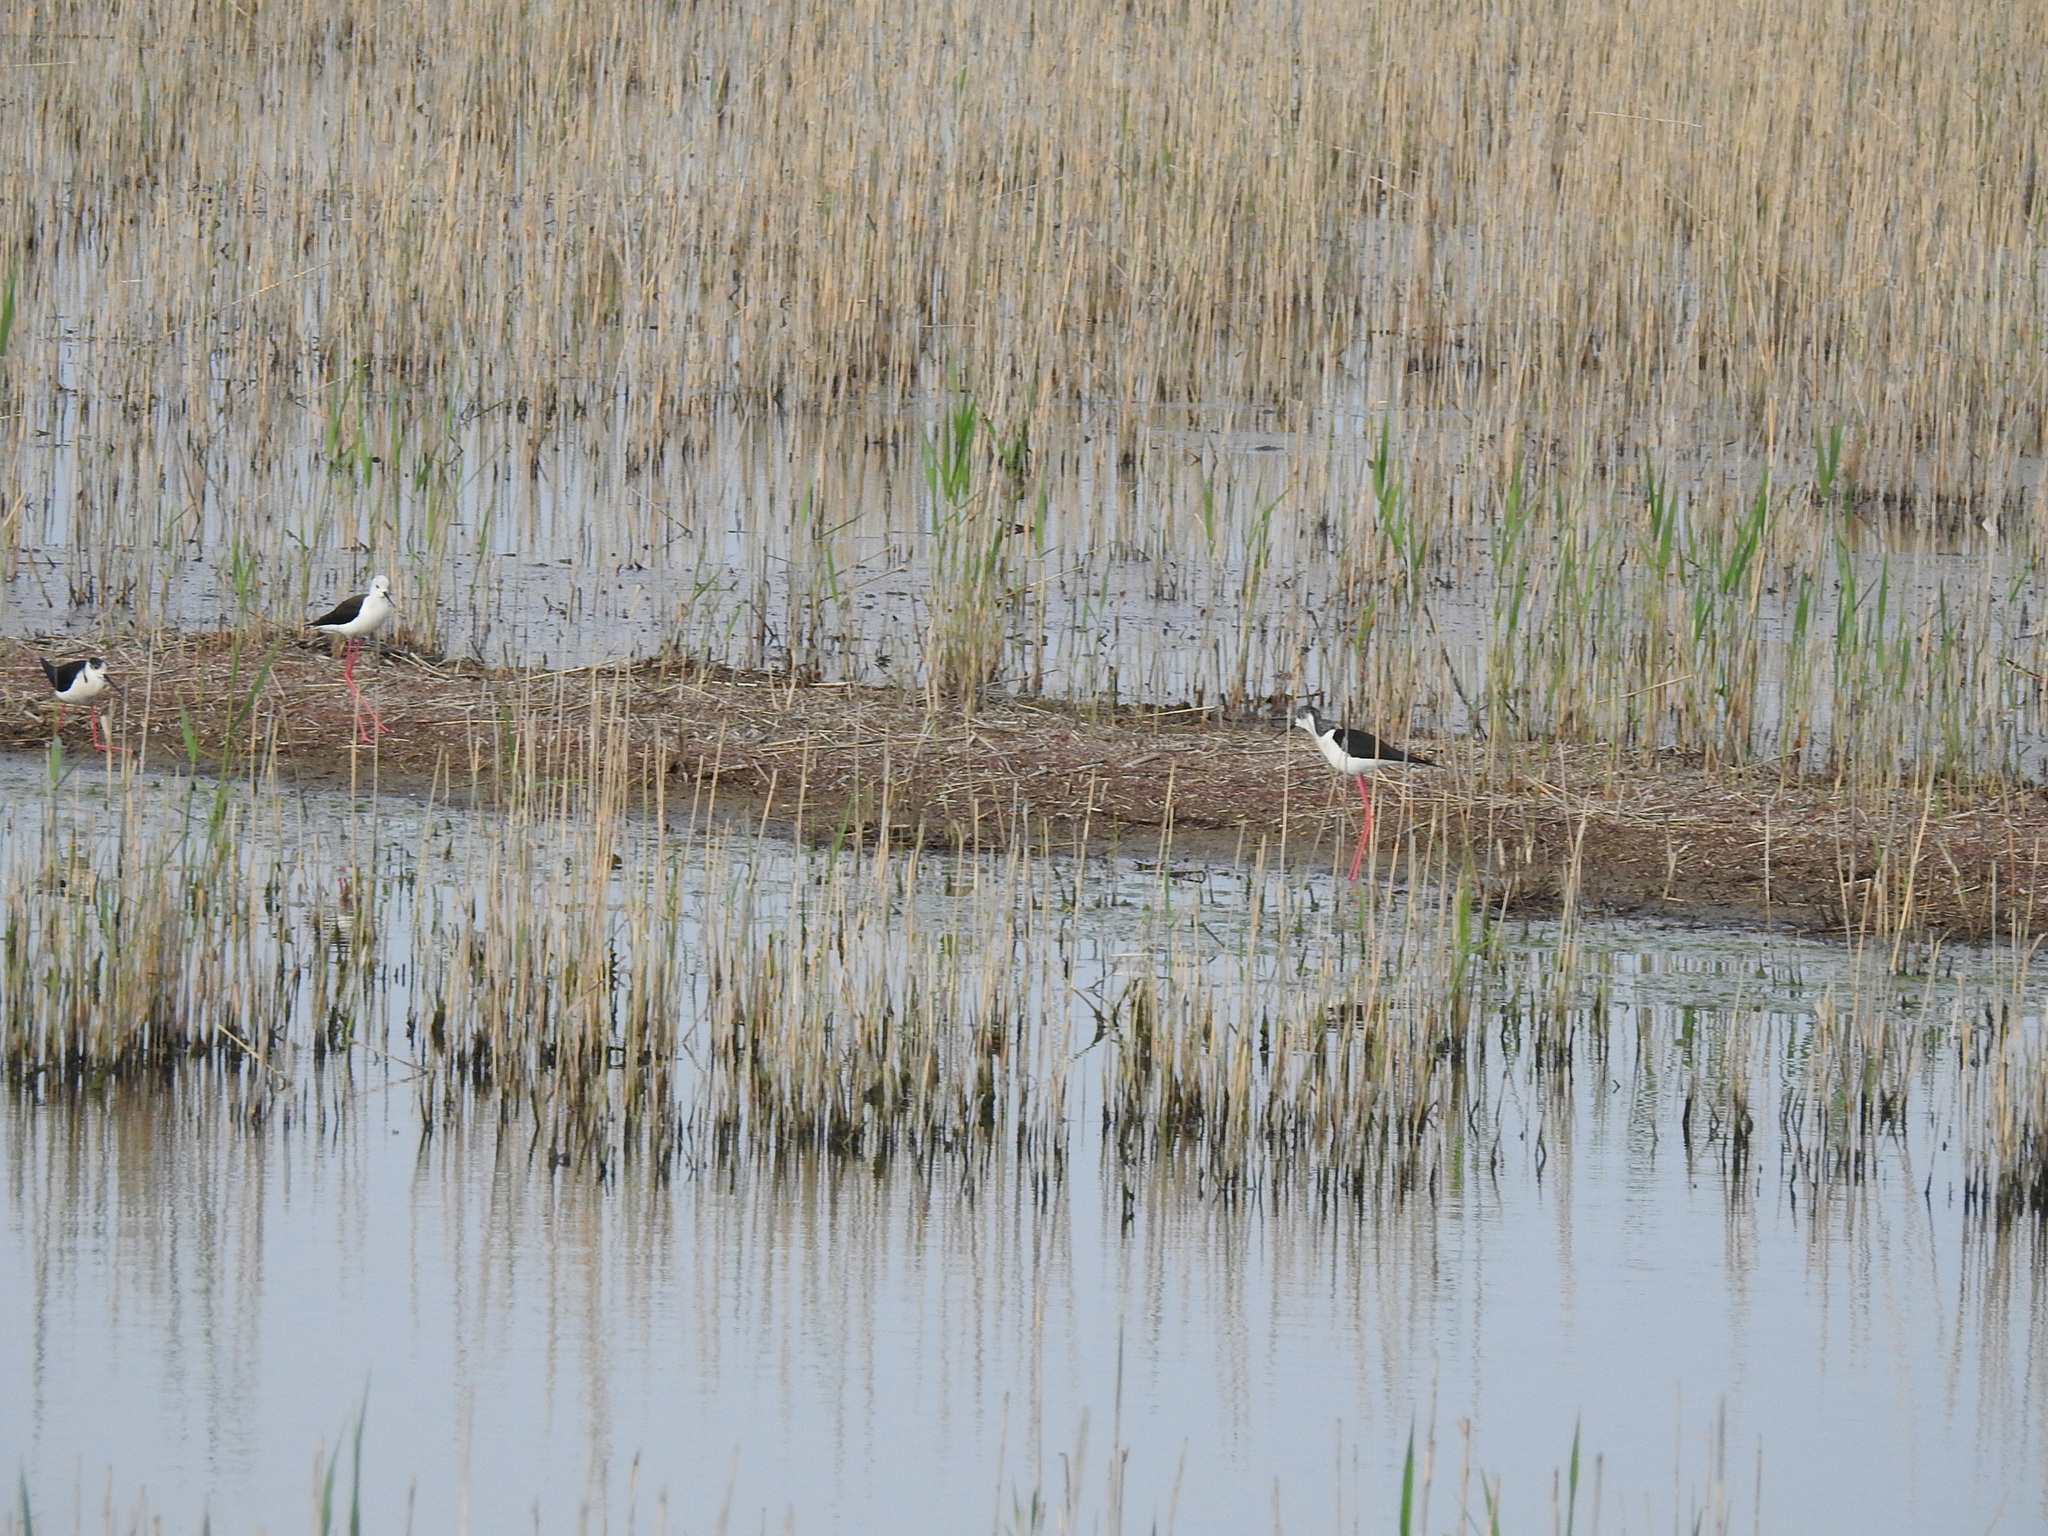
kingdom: Animalia
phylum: Chordata
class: Aves
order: Charadriiformes
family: Recurvirostridae
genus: Himantopus
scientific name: Himantopus himantopus
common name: Black-winged stilt
